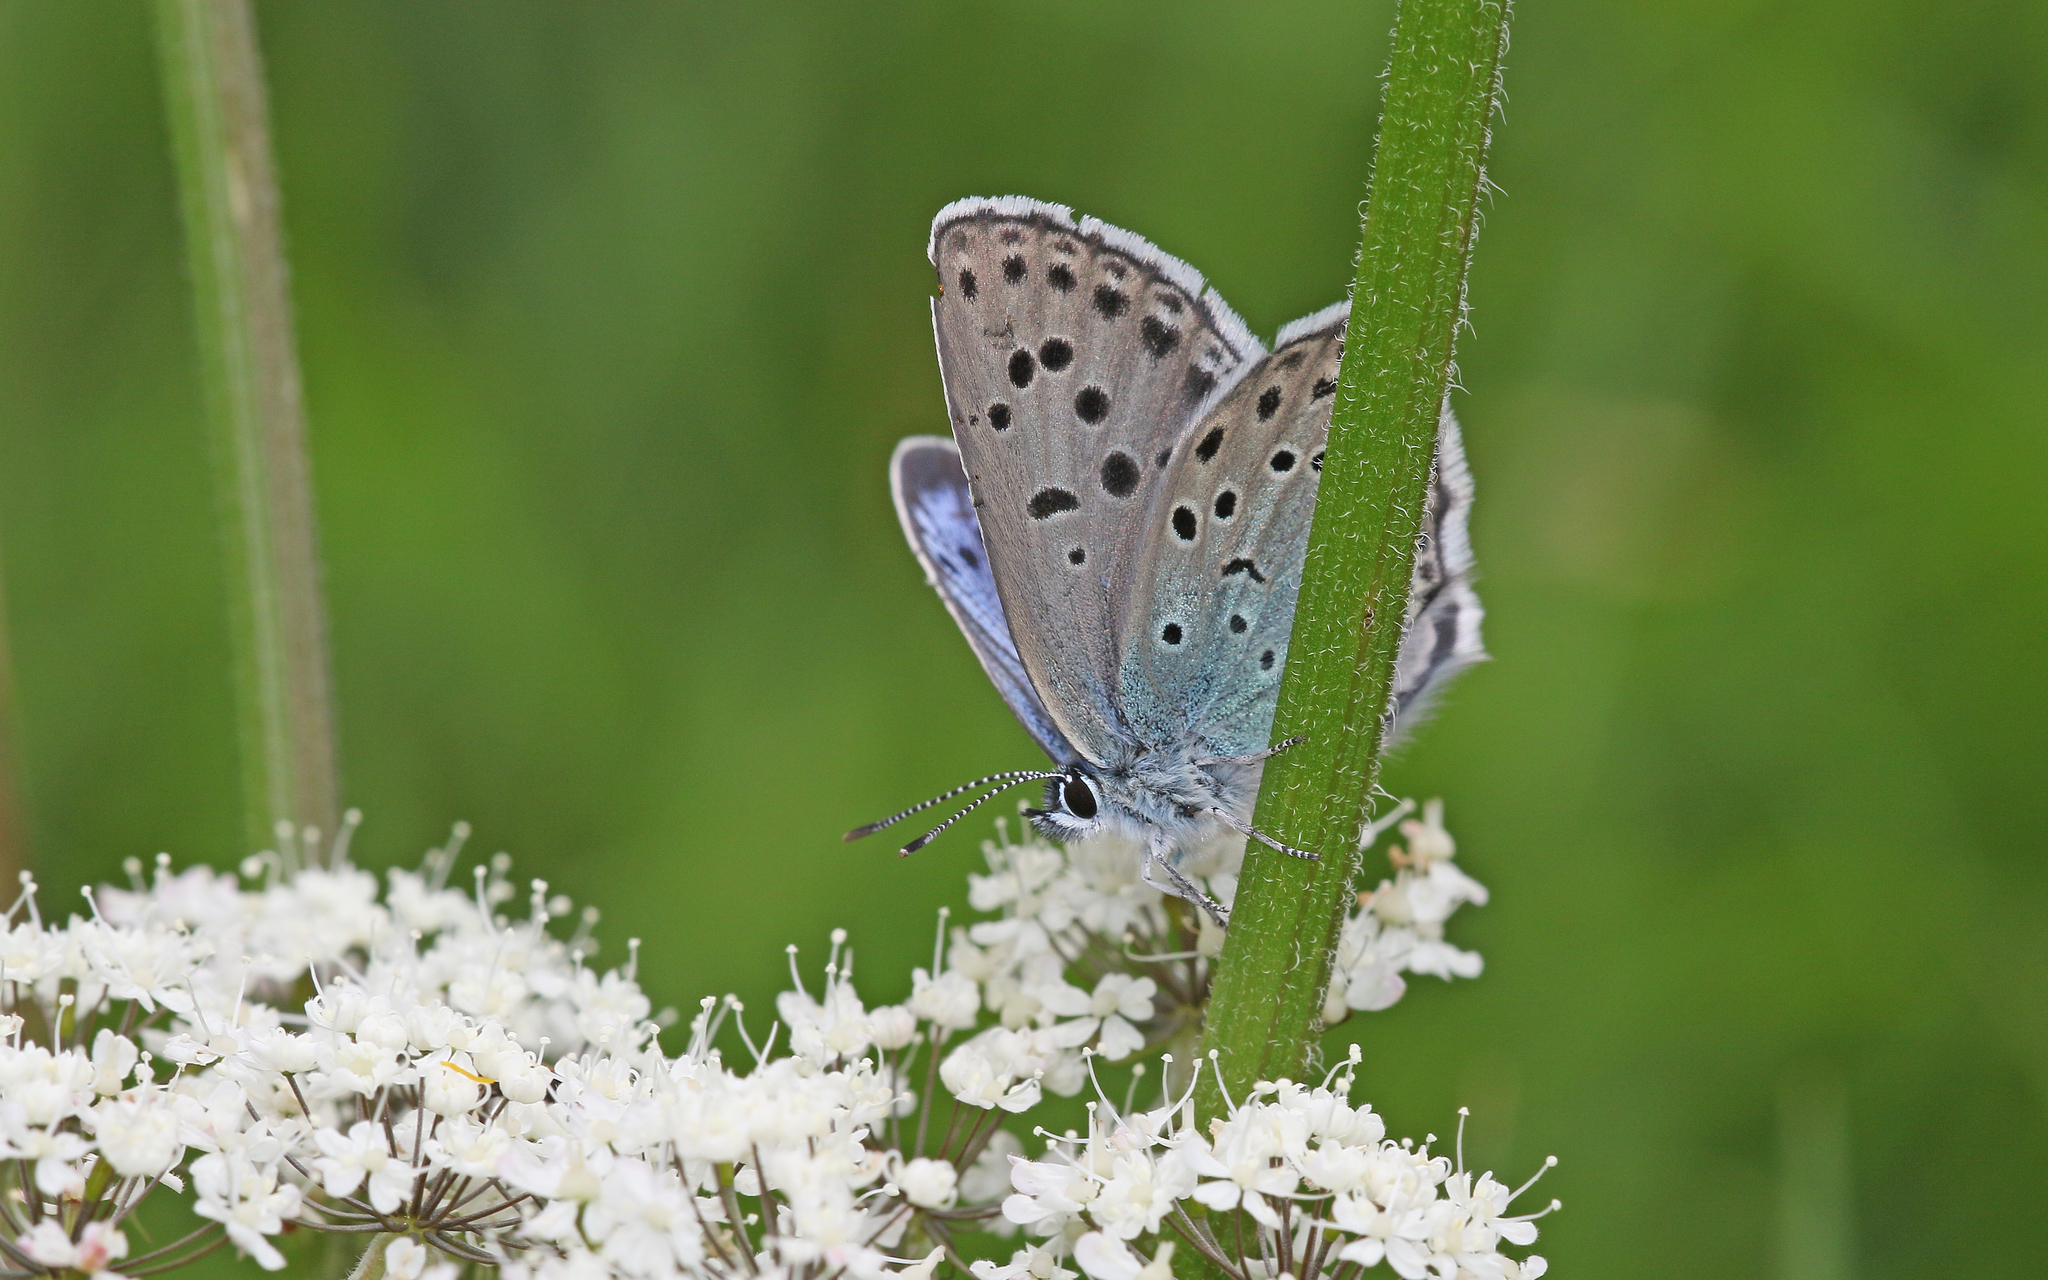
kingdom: Animalia
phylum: Arthropoda
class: Insecta
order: Lepidoptera
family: Lycaenidae
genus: Maculinea
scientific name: Maculinea arion
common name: Large blue
